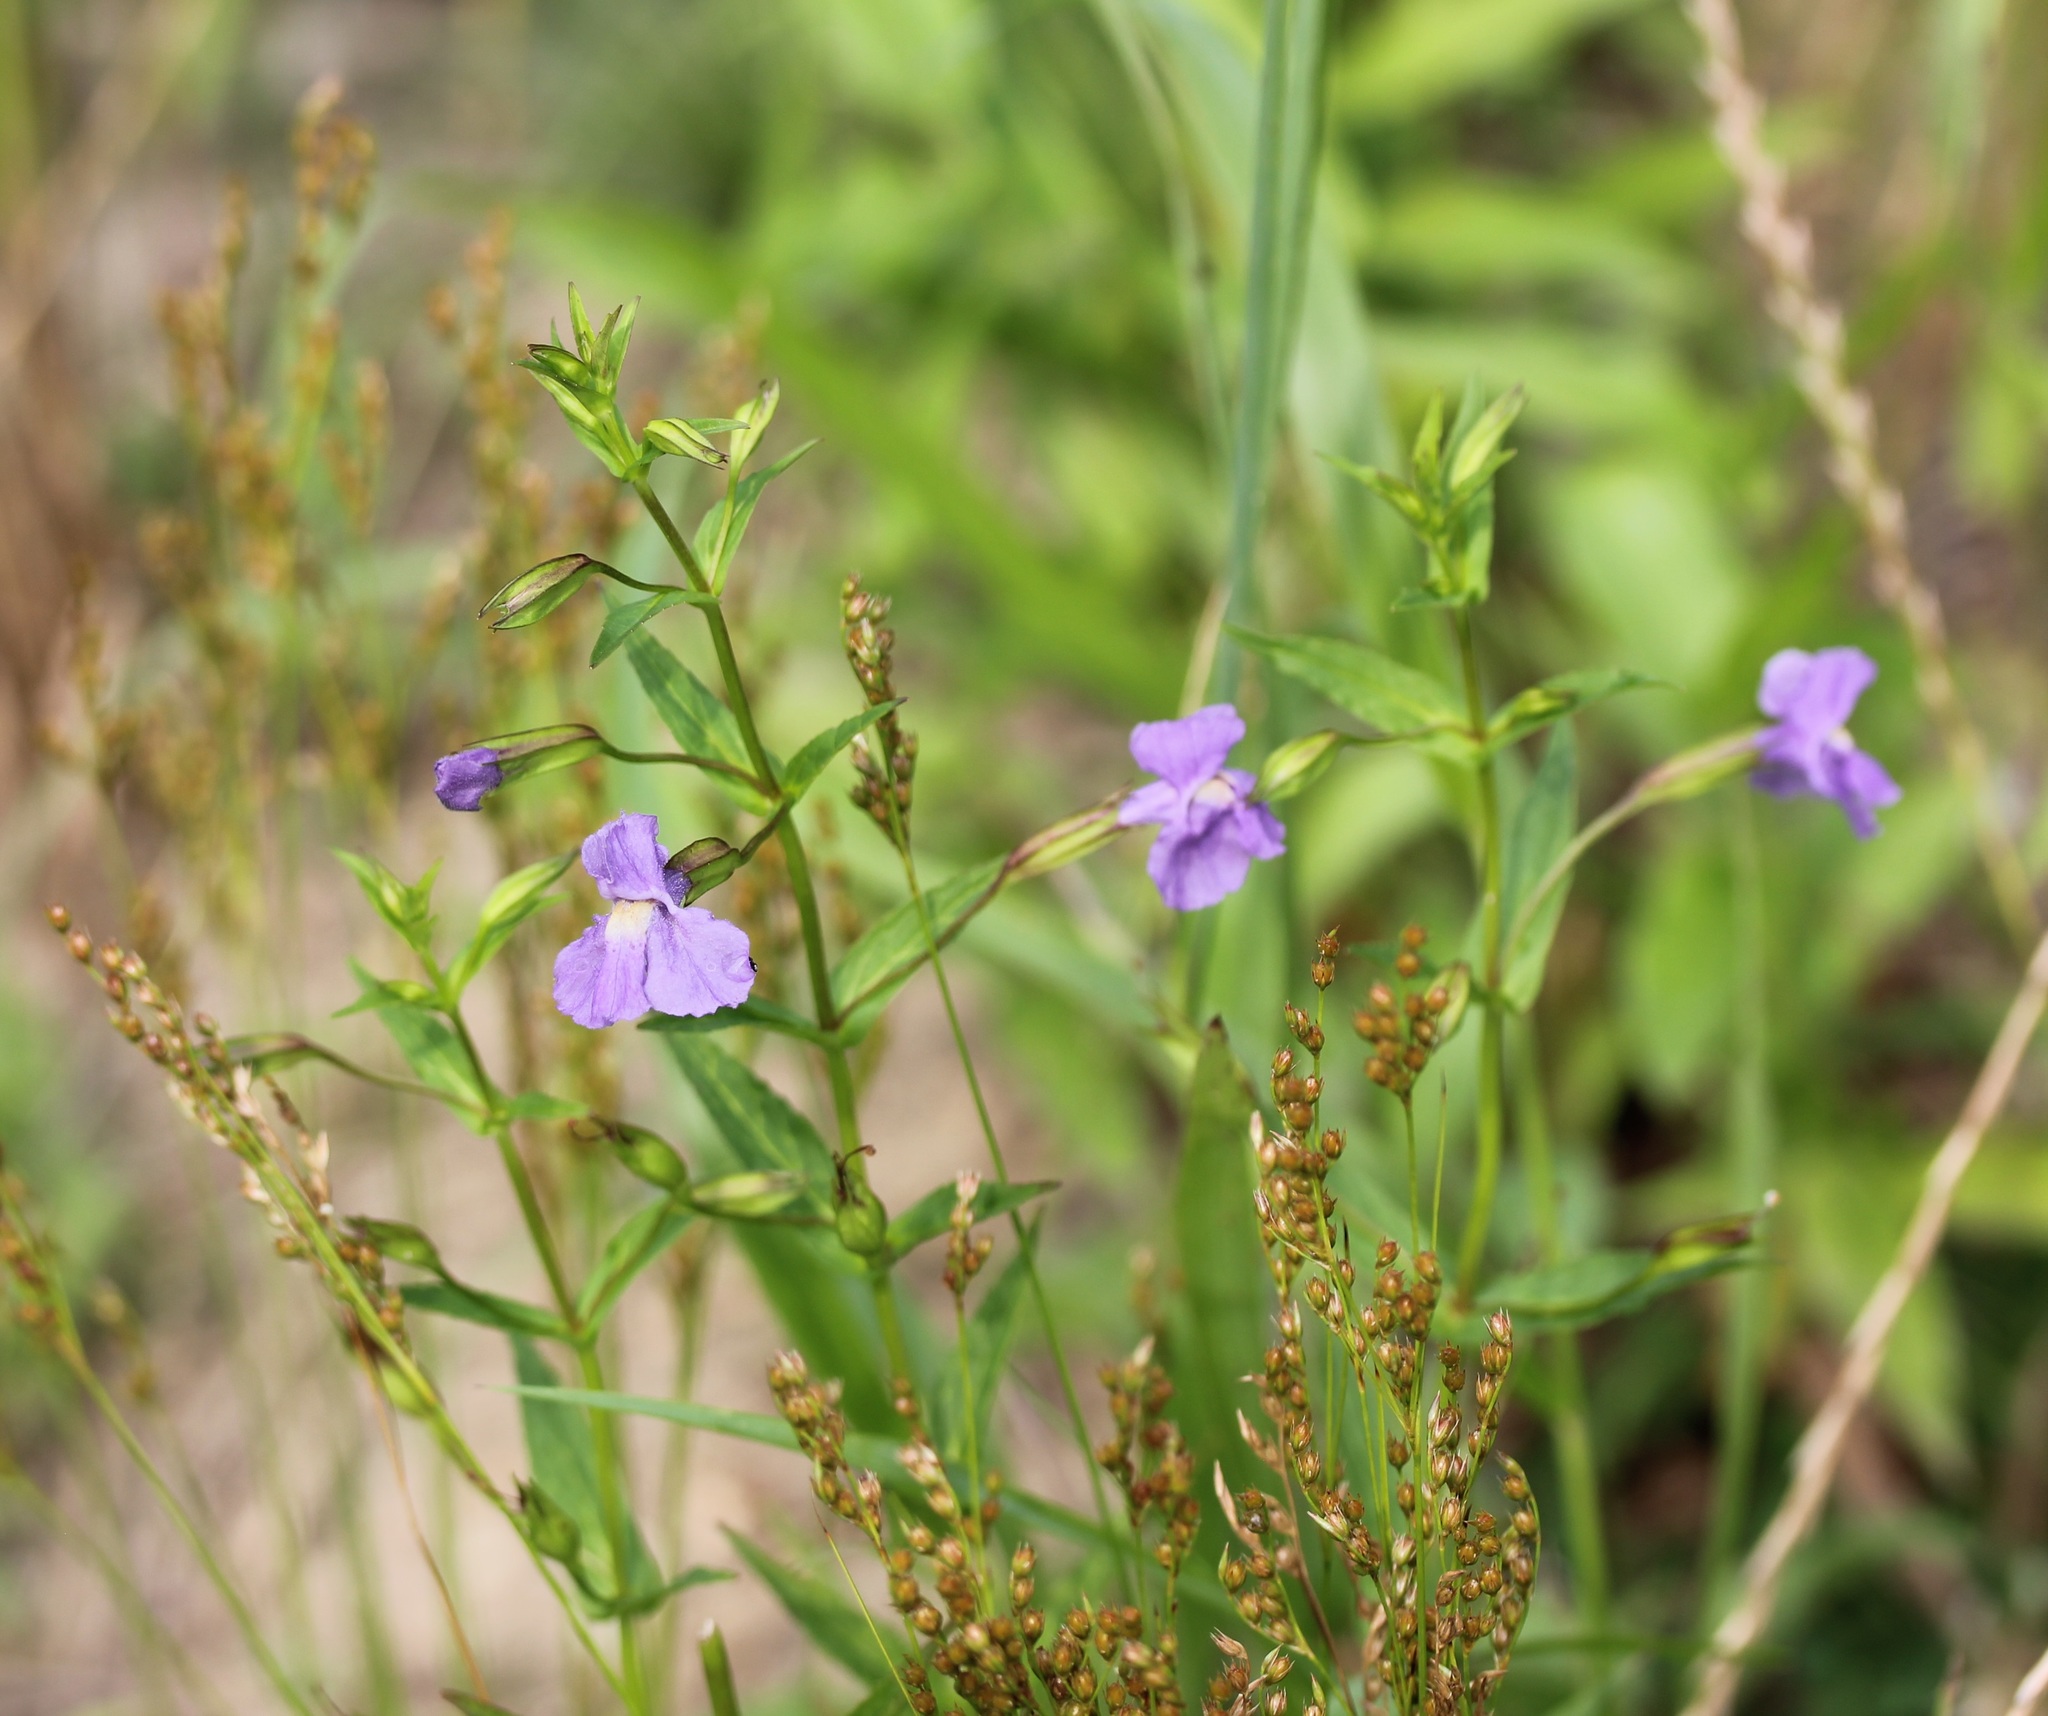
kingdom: Plantae
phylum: Tracheophyta
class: Magnoliopsida
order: Lamiales
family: Phrymaceae
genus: Mimulus
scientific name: Mimulus ringens
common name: Allegheny monkeyflower
